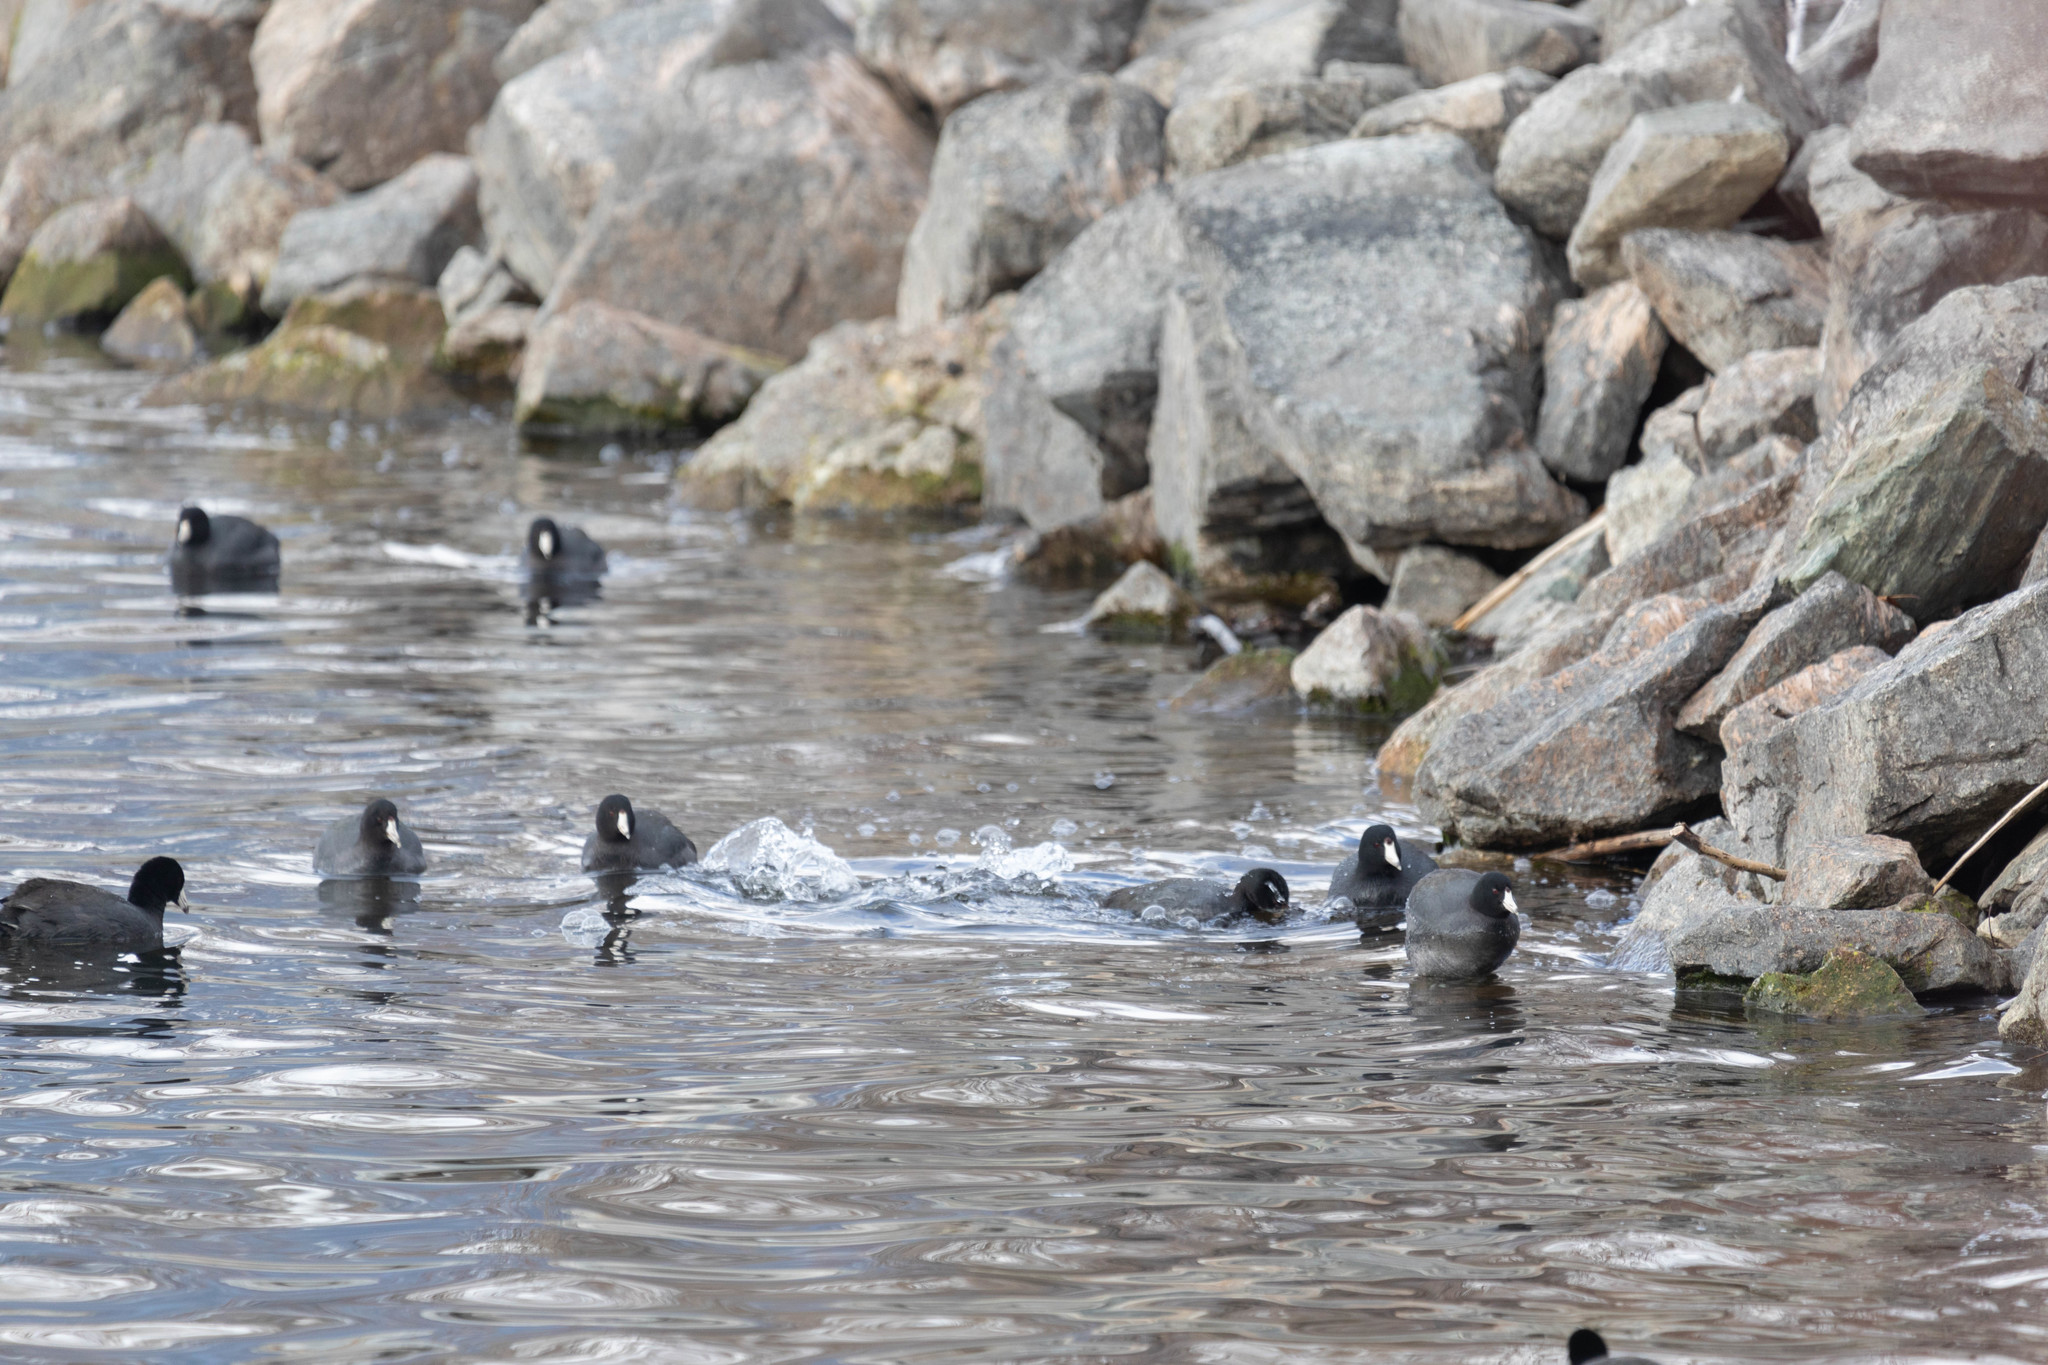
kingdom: Animalia
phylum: Chordata
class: Aves
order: Gruiformes
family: Rallidae
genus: Fulica
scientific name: Fulica americana
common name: American coot
